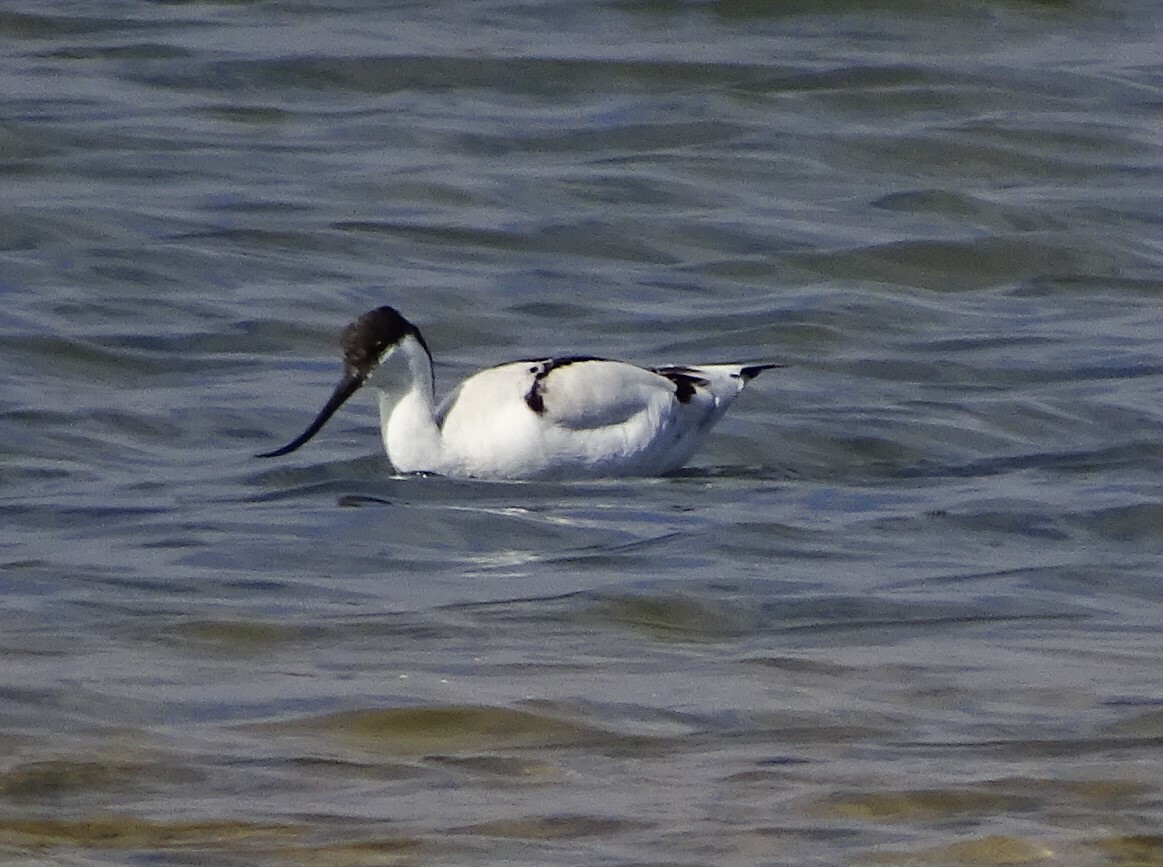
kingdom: Animalia
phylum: Chordata
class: Aves
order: Charadriiformes
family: Recurvirostridae
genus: Recurvirostra
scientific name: Recurvirostra avosetta
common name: Pied avocet
